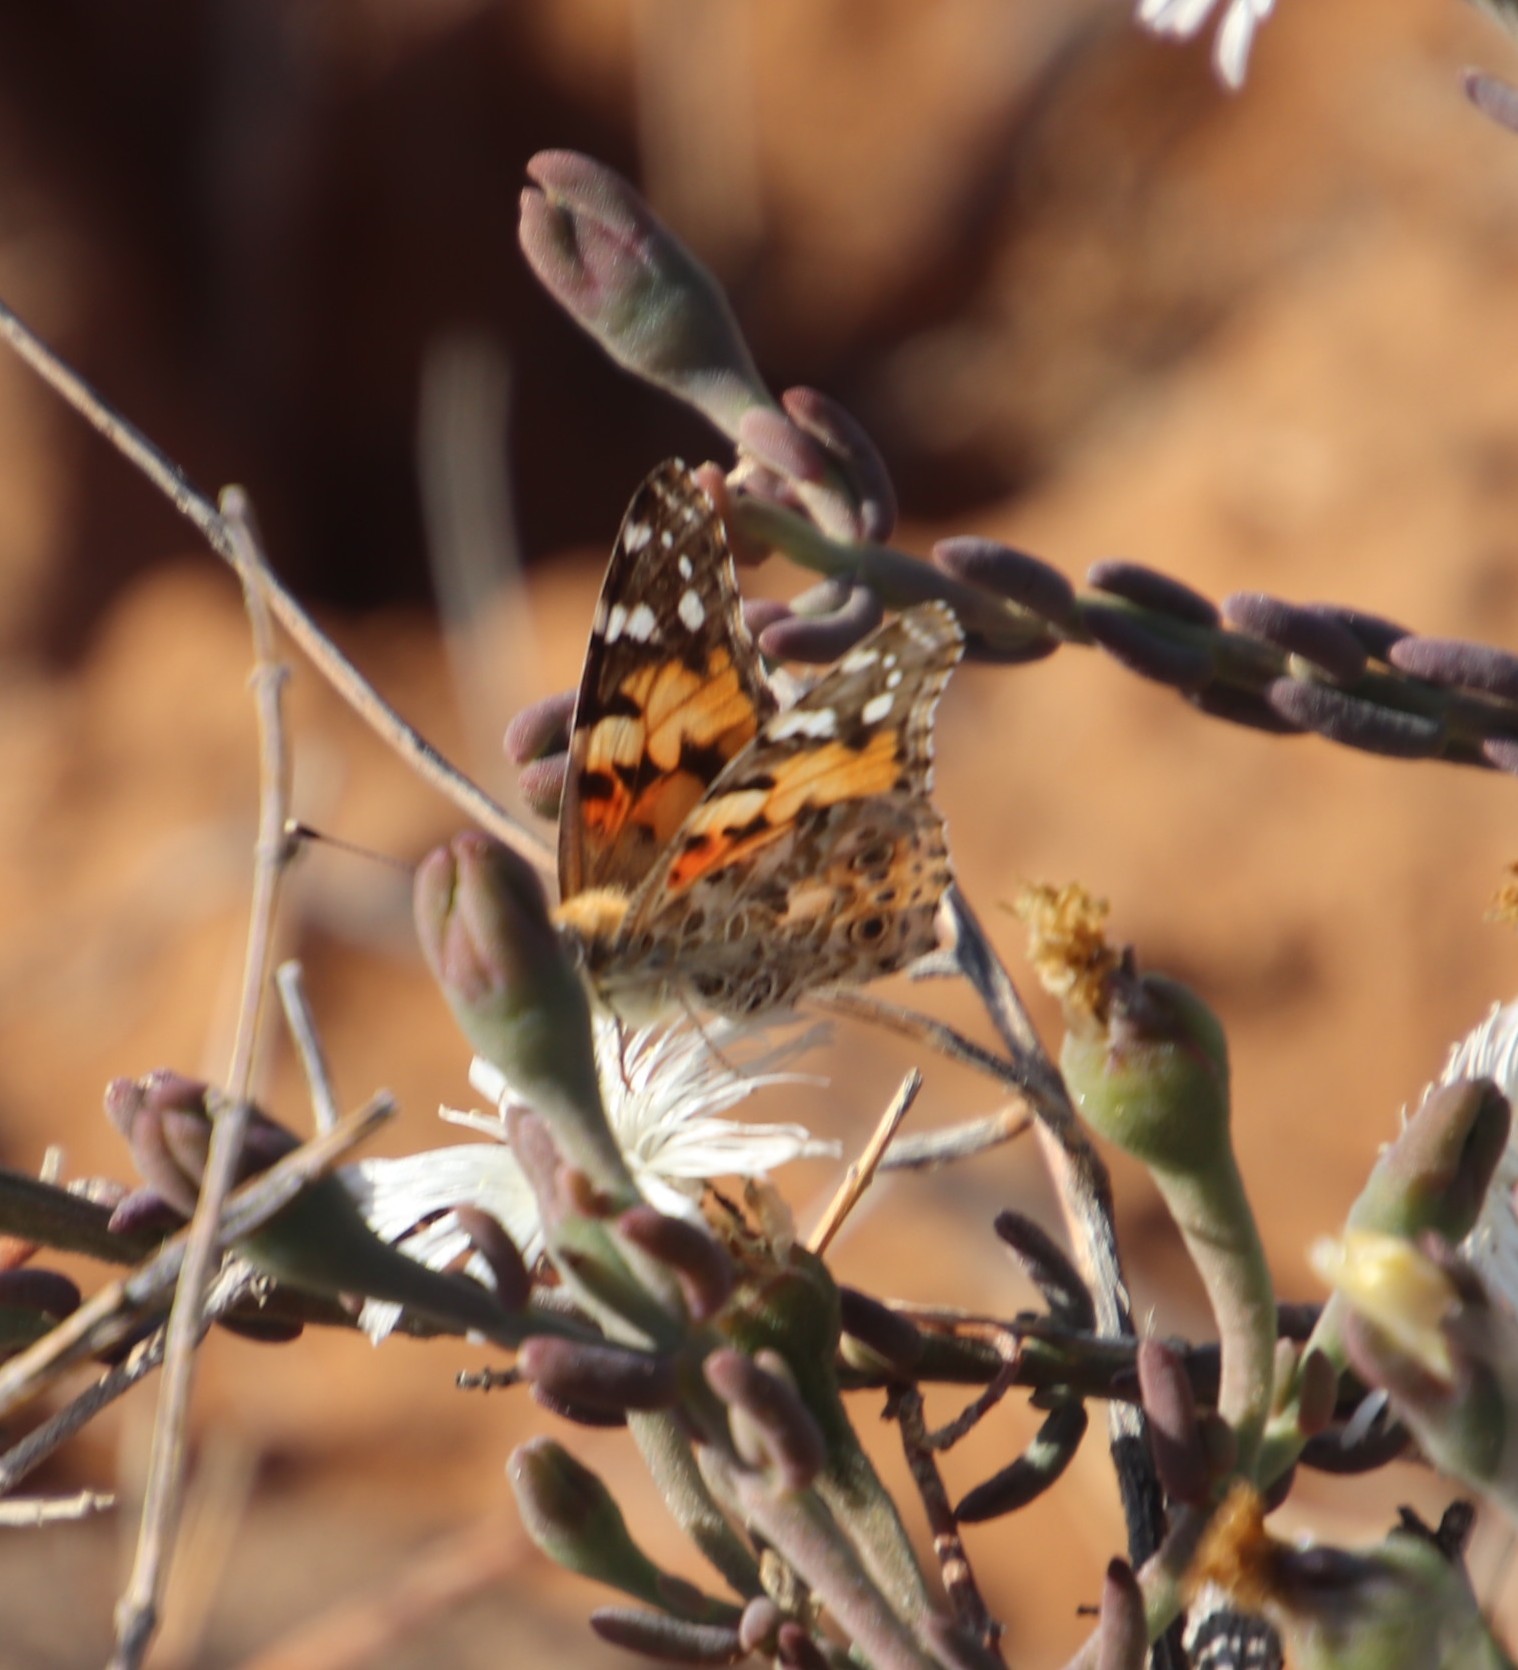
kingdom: Animalia
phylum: Arthropoda
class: Insecta
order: Lepidoptera
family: Nymphalidae
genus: Vanessa
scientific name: Vanessa cardui
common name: Painted lady
